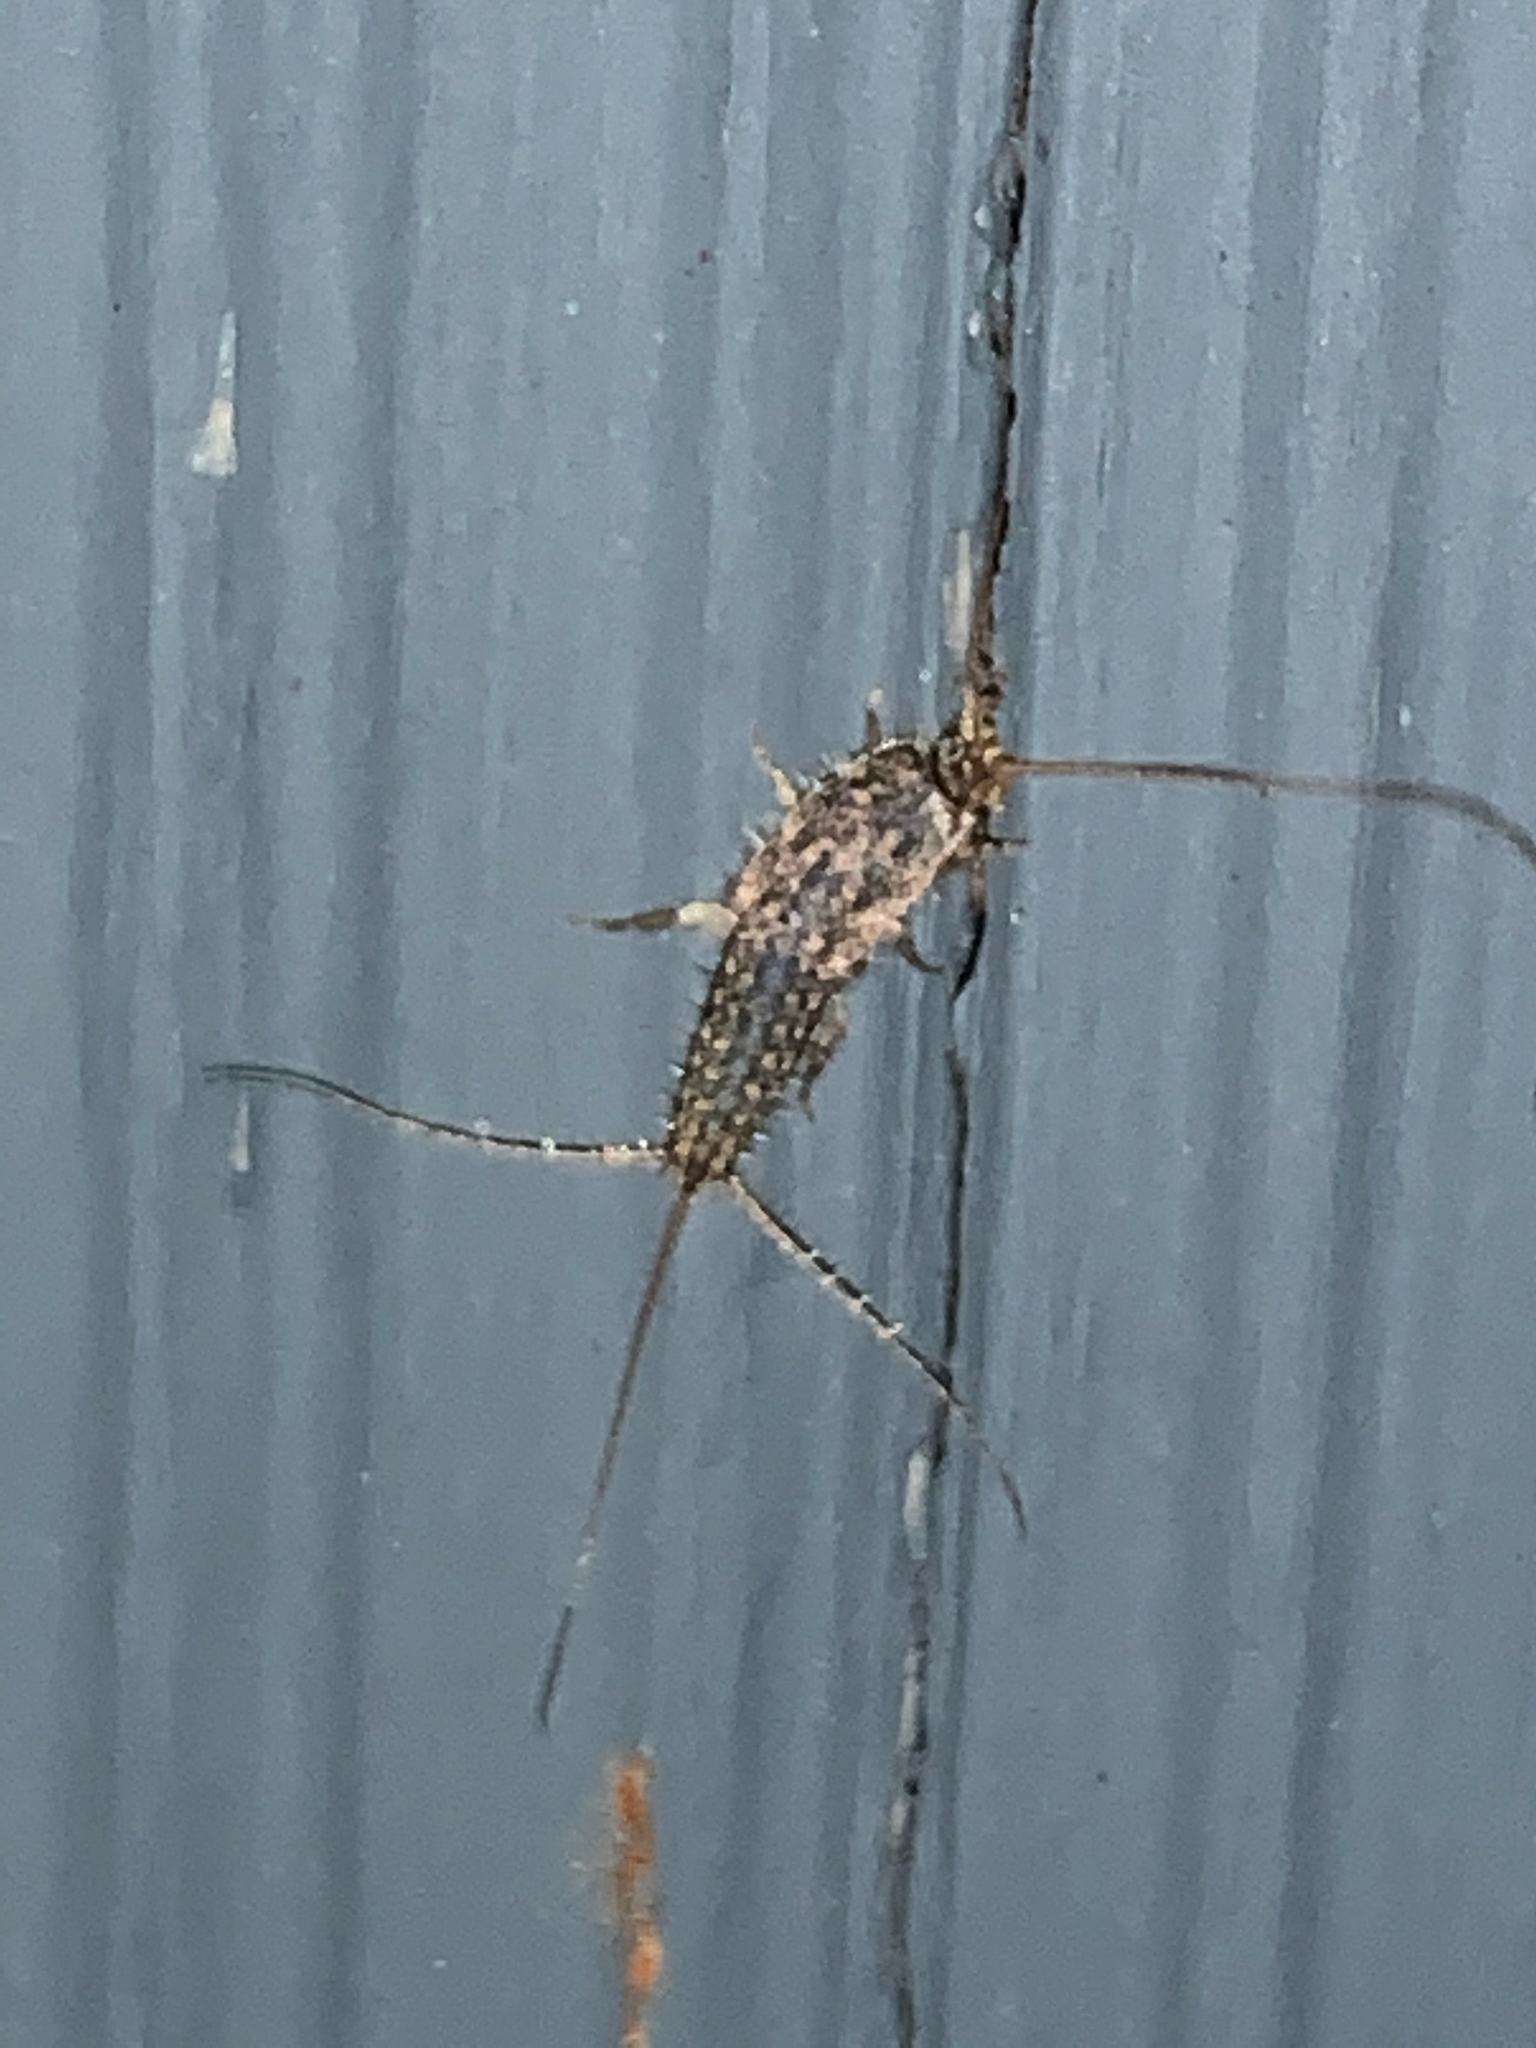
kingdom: Animalia
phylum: Arthropoda
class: Insecta
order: Zygentoma
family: Lepismatidae
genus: Ctenolepisma
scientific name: Ctenolepisma lineata
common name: Four-lined silverfish
